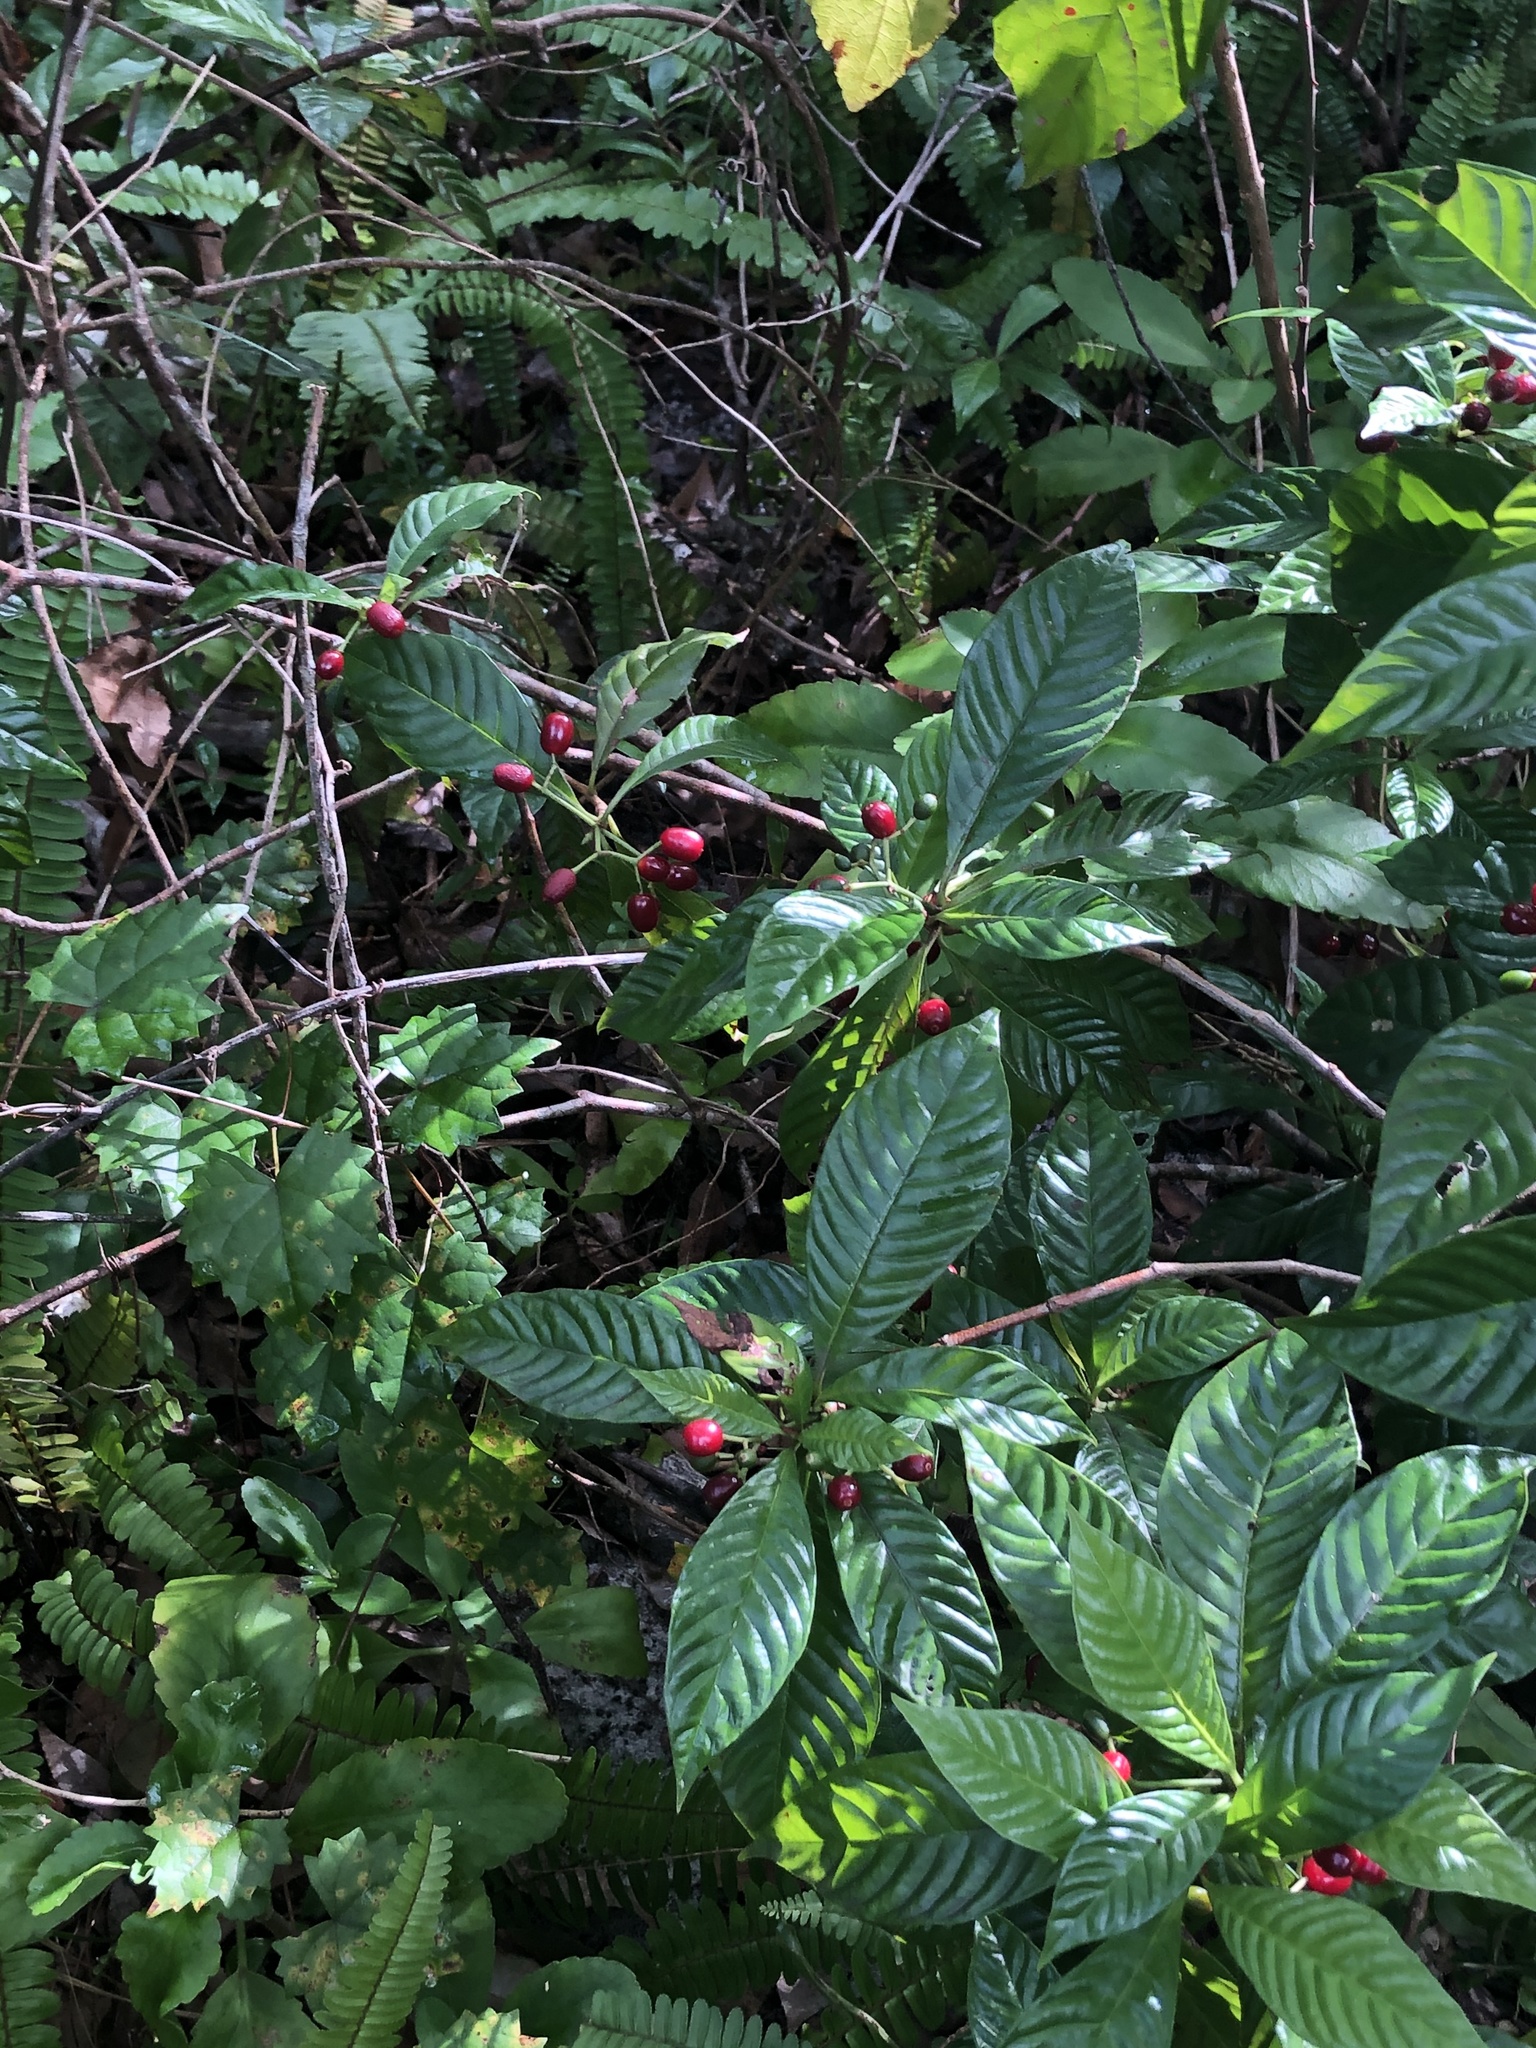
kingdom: Plantae
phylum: Tracheophyta
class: Magnoliopsida
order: Gentianales
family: Rubiaceae
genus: Psychotria
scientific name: Psychotria nervosa
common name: Bastard cankerberry
